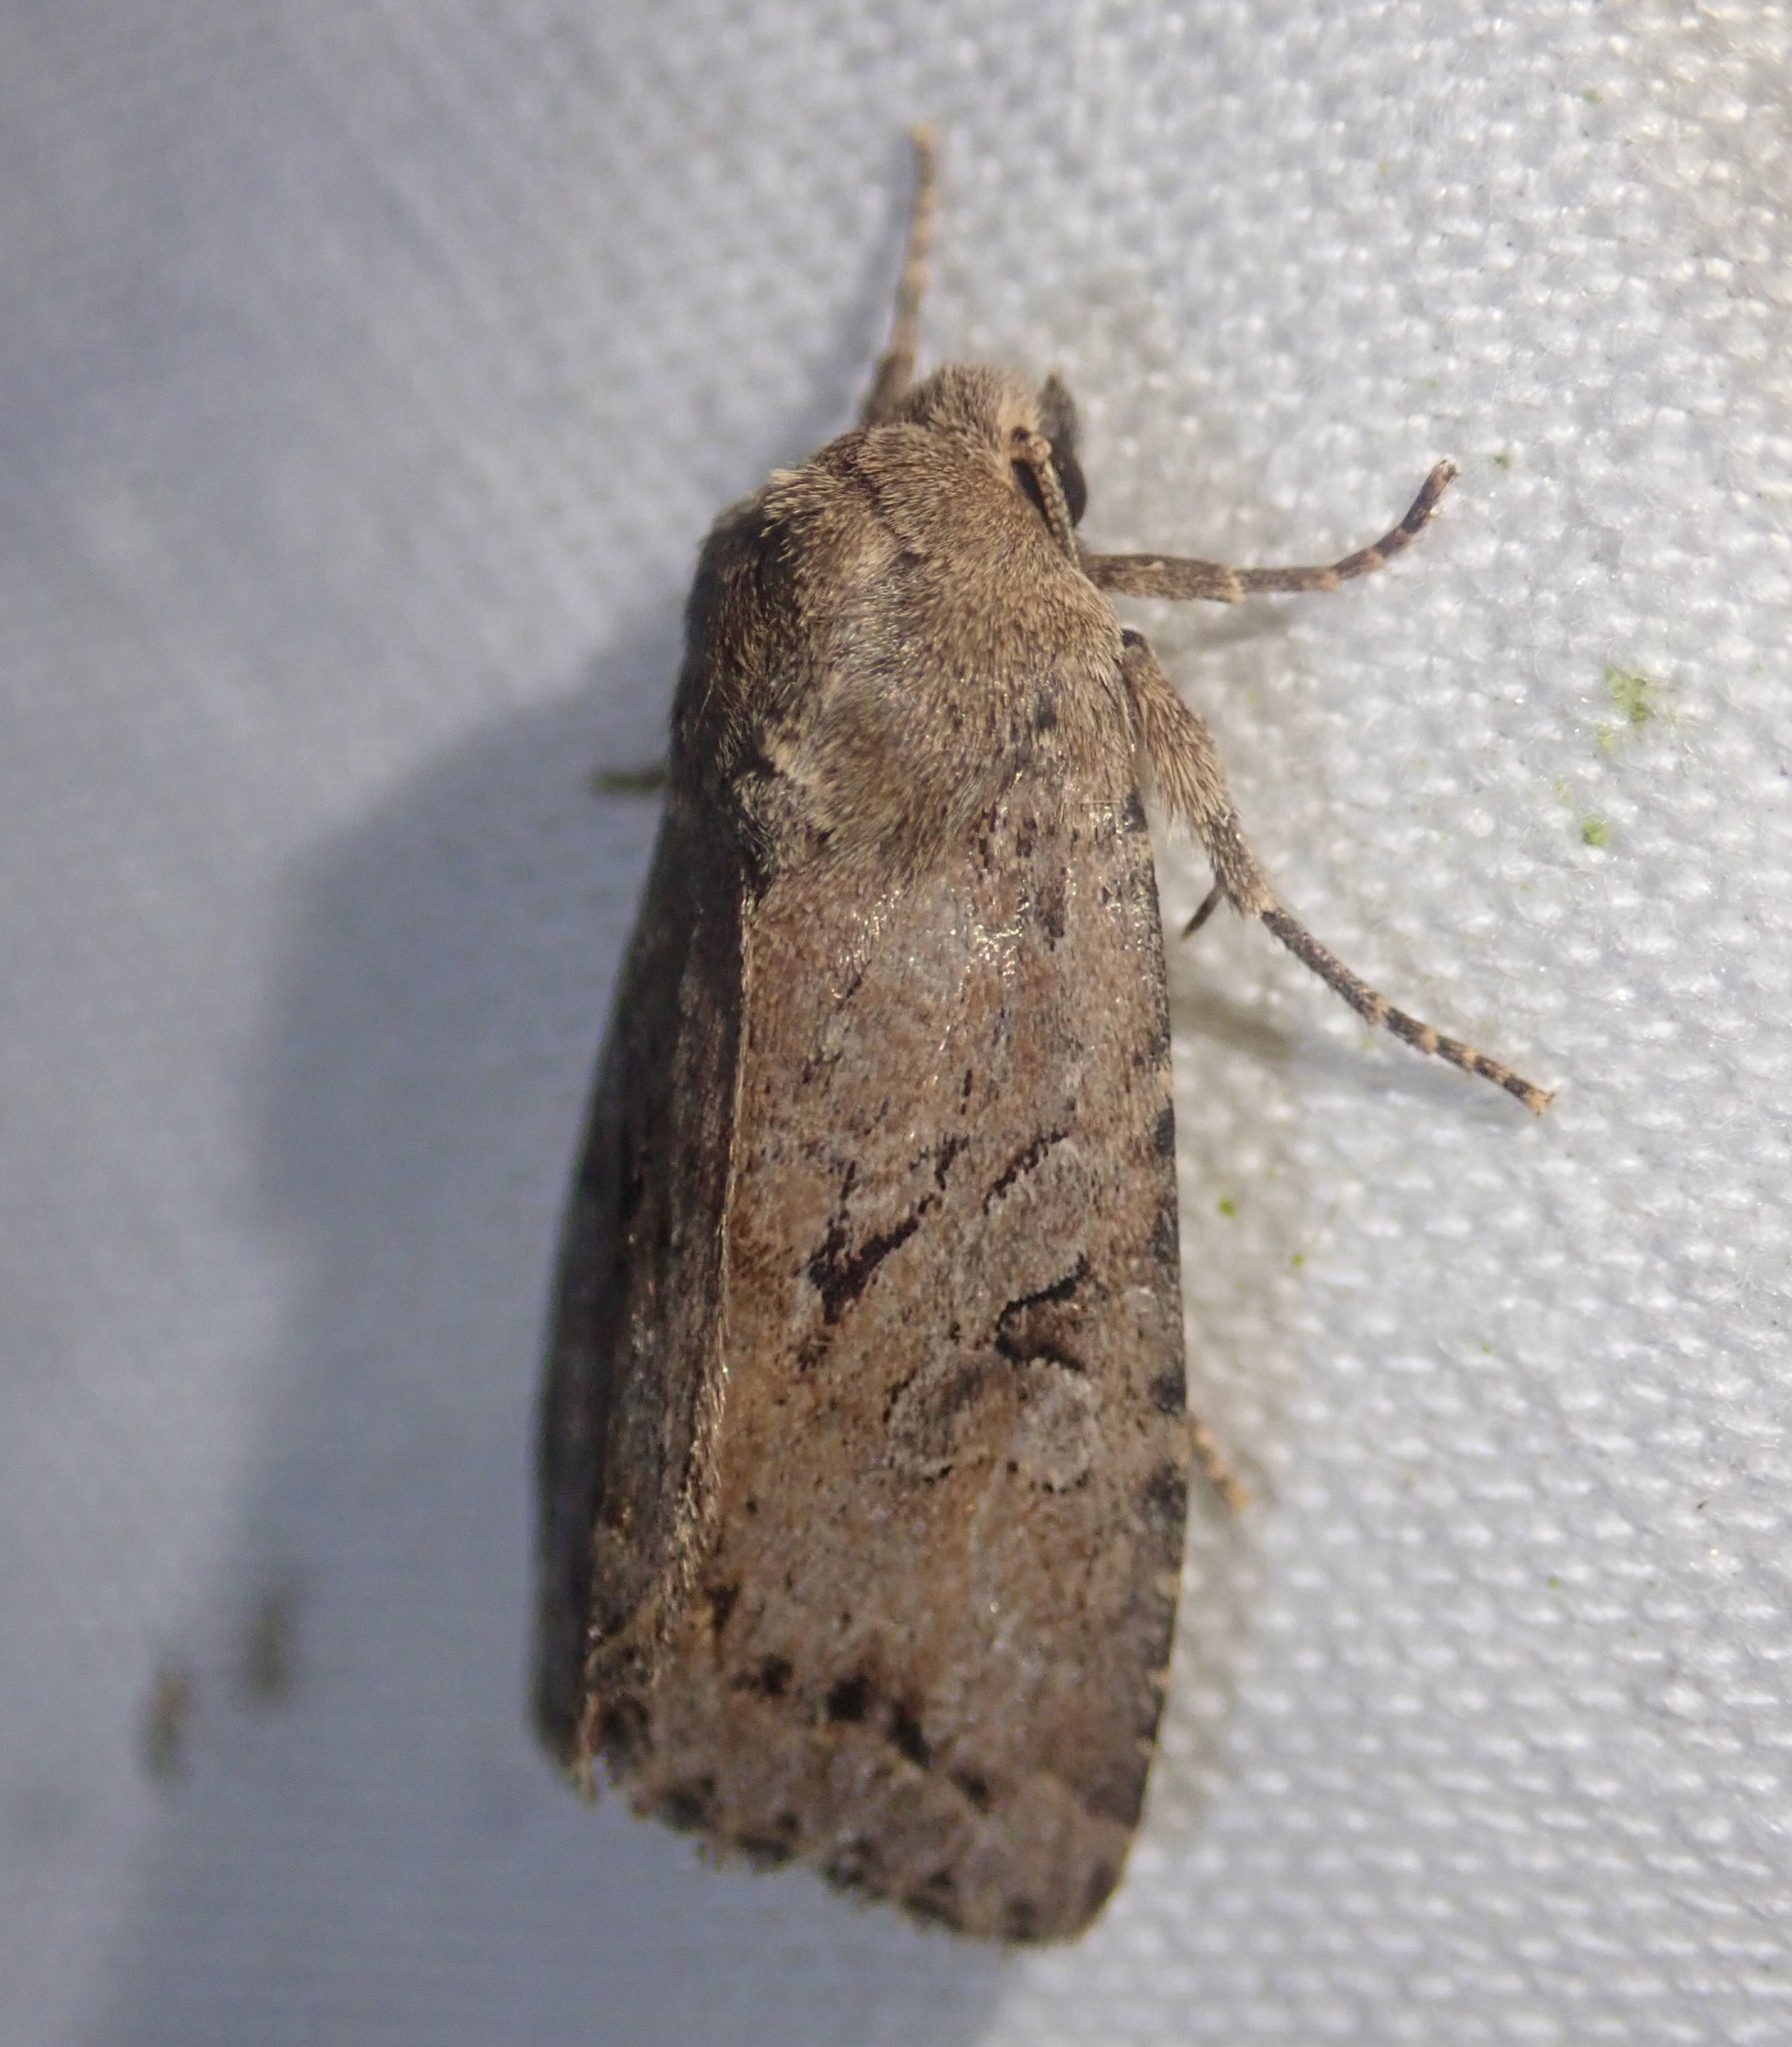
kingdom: Animalia
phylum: Arthropoda
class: Insecta
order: Lepidoptera
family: Noctuidae
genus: Apterogenum
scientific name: Apterogenum ypsillon
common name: Dingy shears
